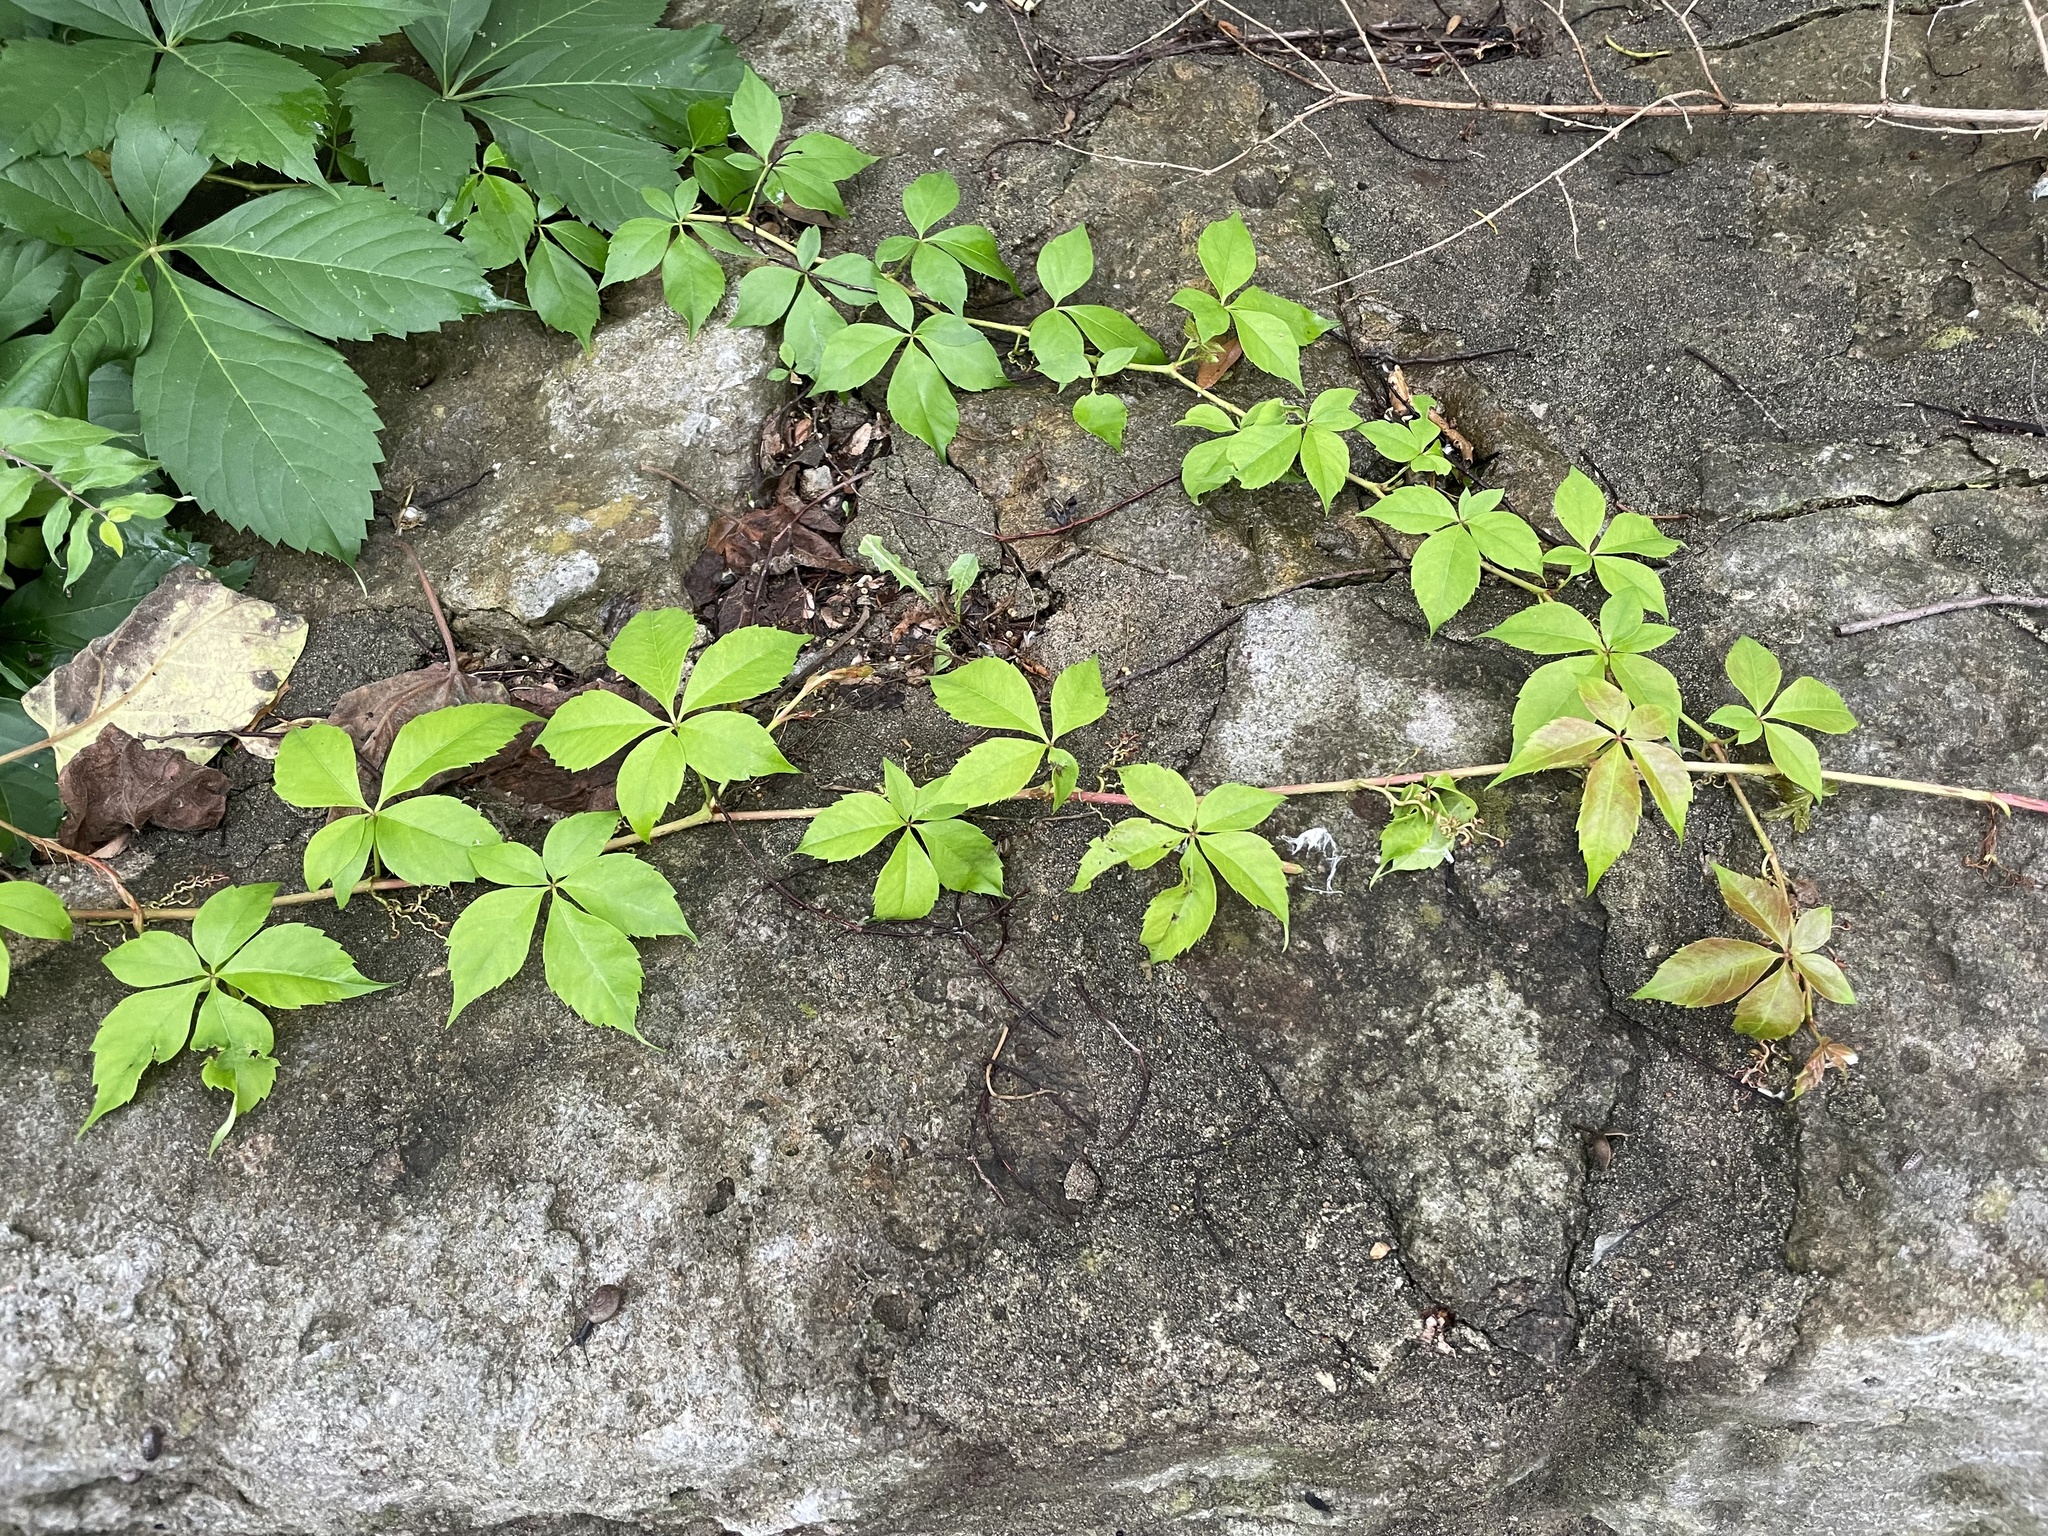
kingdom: Plantae
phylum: Tracheophyta
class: Magnoliopsida
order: Vitales
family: Vitaceae
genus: Parthenocissus
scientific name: Parthenocissus quinquefolia
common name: Virginia-creeper
